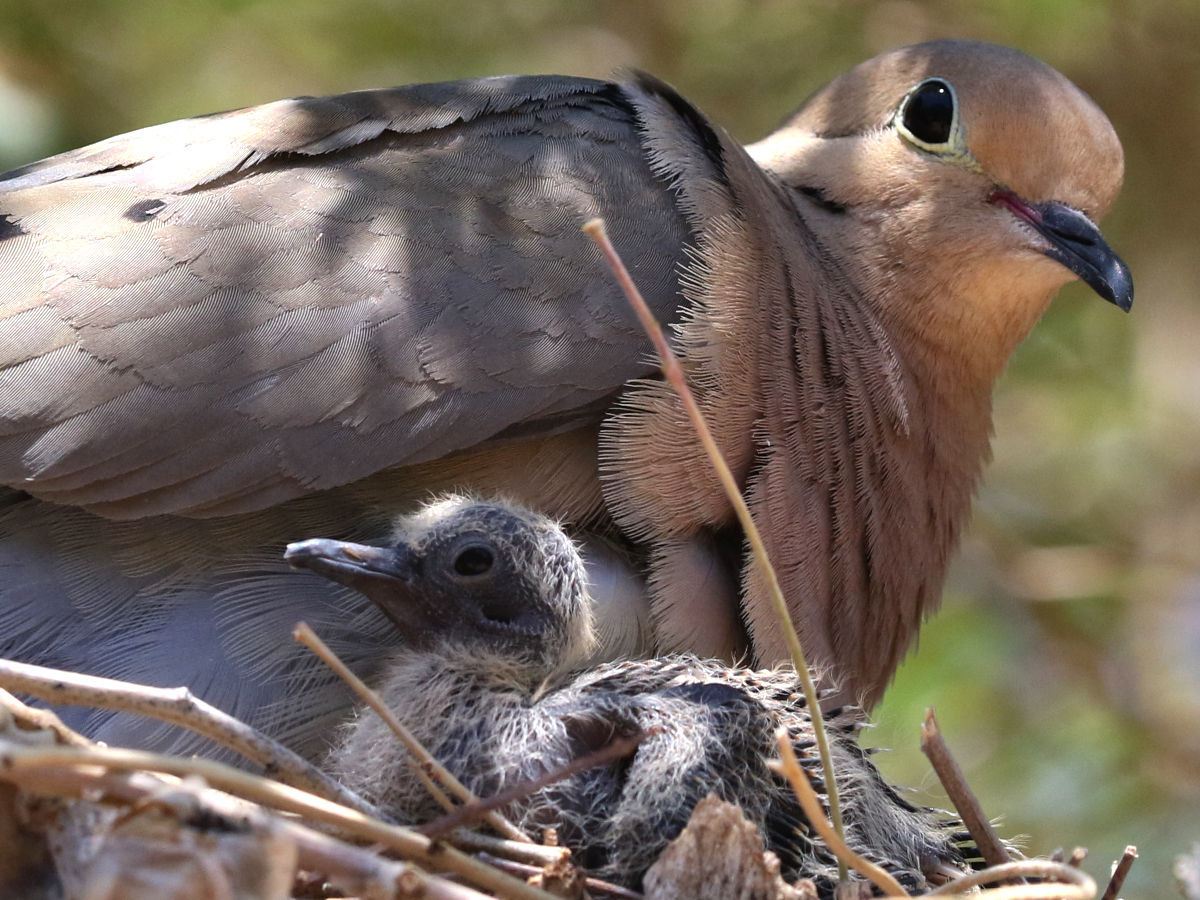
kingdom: Animalia
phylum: Chordata
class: Aves
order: Columbiformes
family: Columbidae
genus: Zenaida
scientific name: Zenaida macroura
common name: Mourning dove
